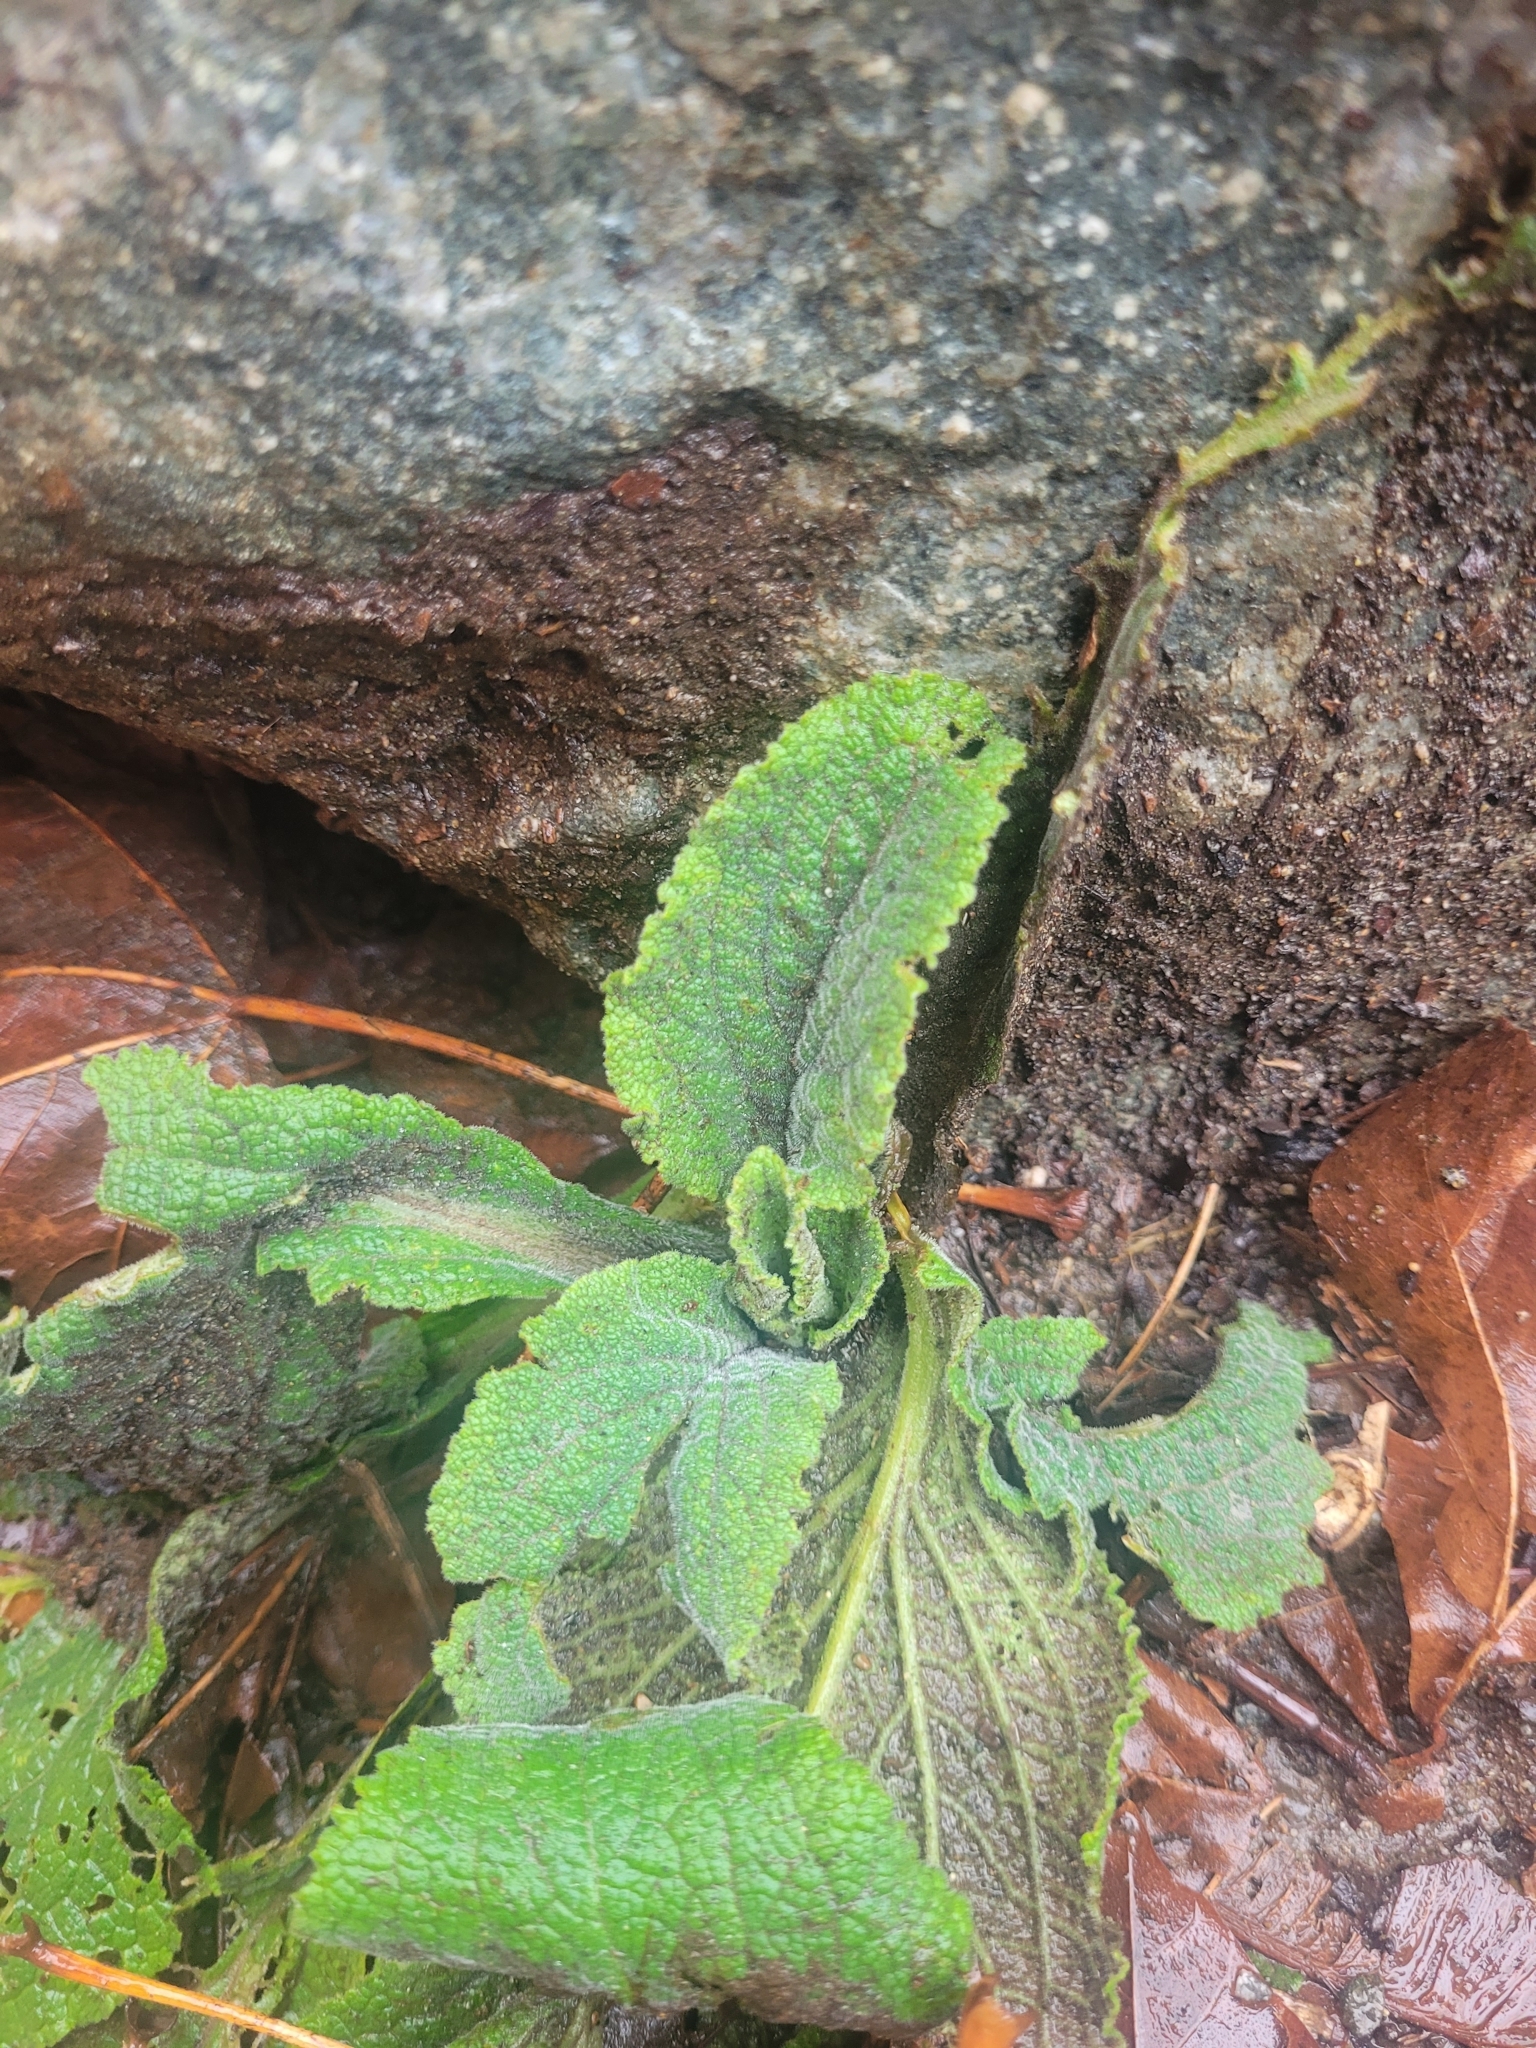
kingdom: Plantae
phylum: Tracheophyta
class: Magnoliopsida
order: Lamiales
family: Plantaginaceae
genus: Digitalis
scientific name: Digitalis purpurea
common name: Foxglove
